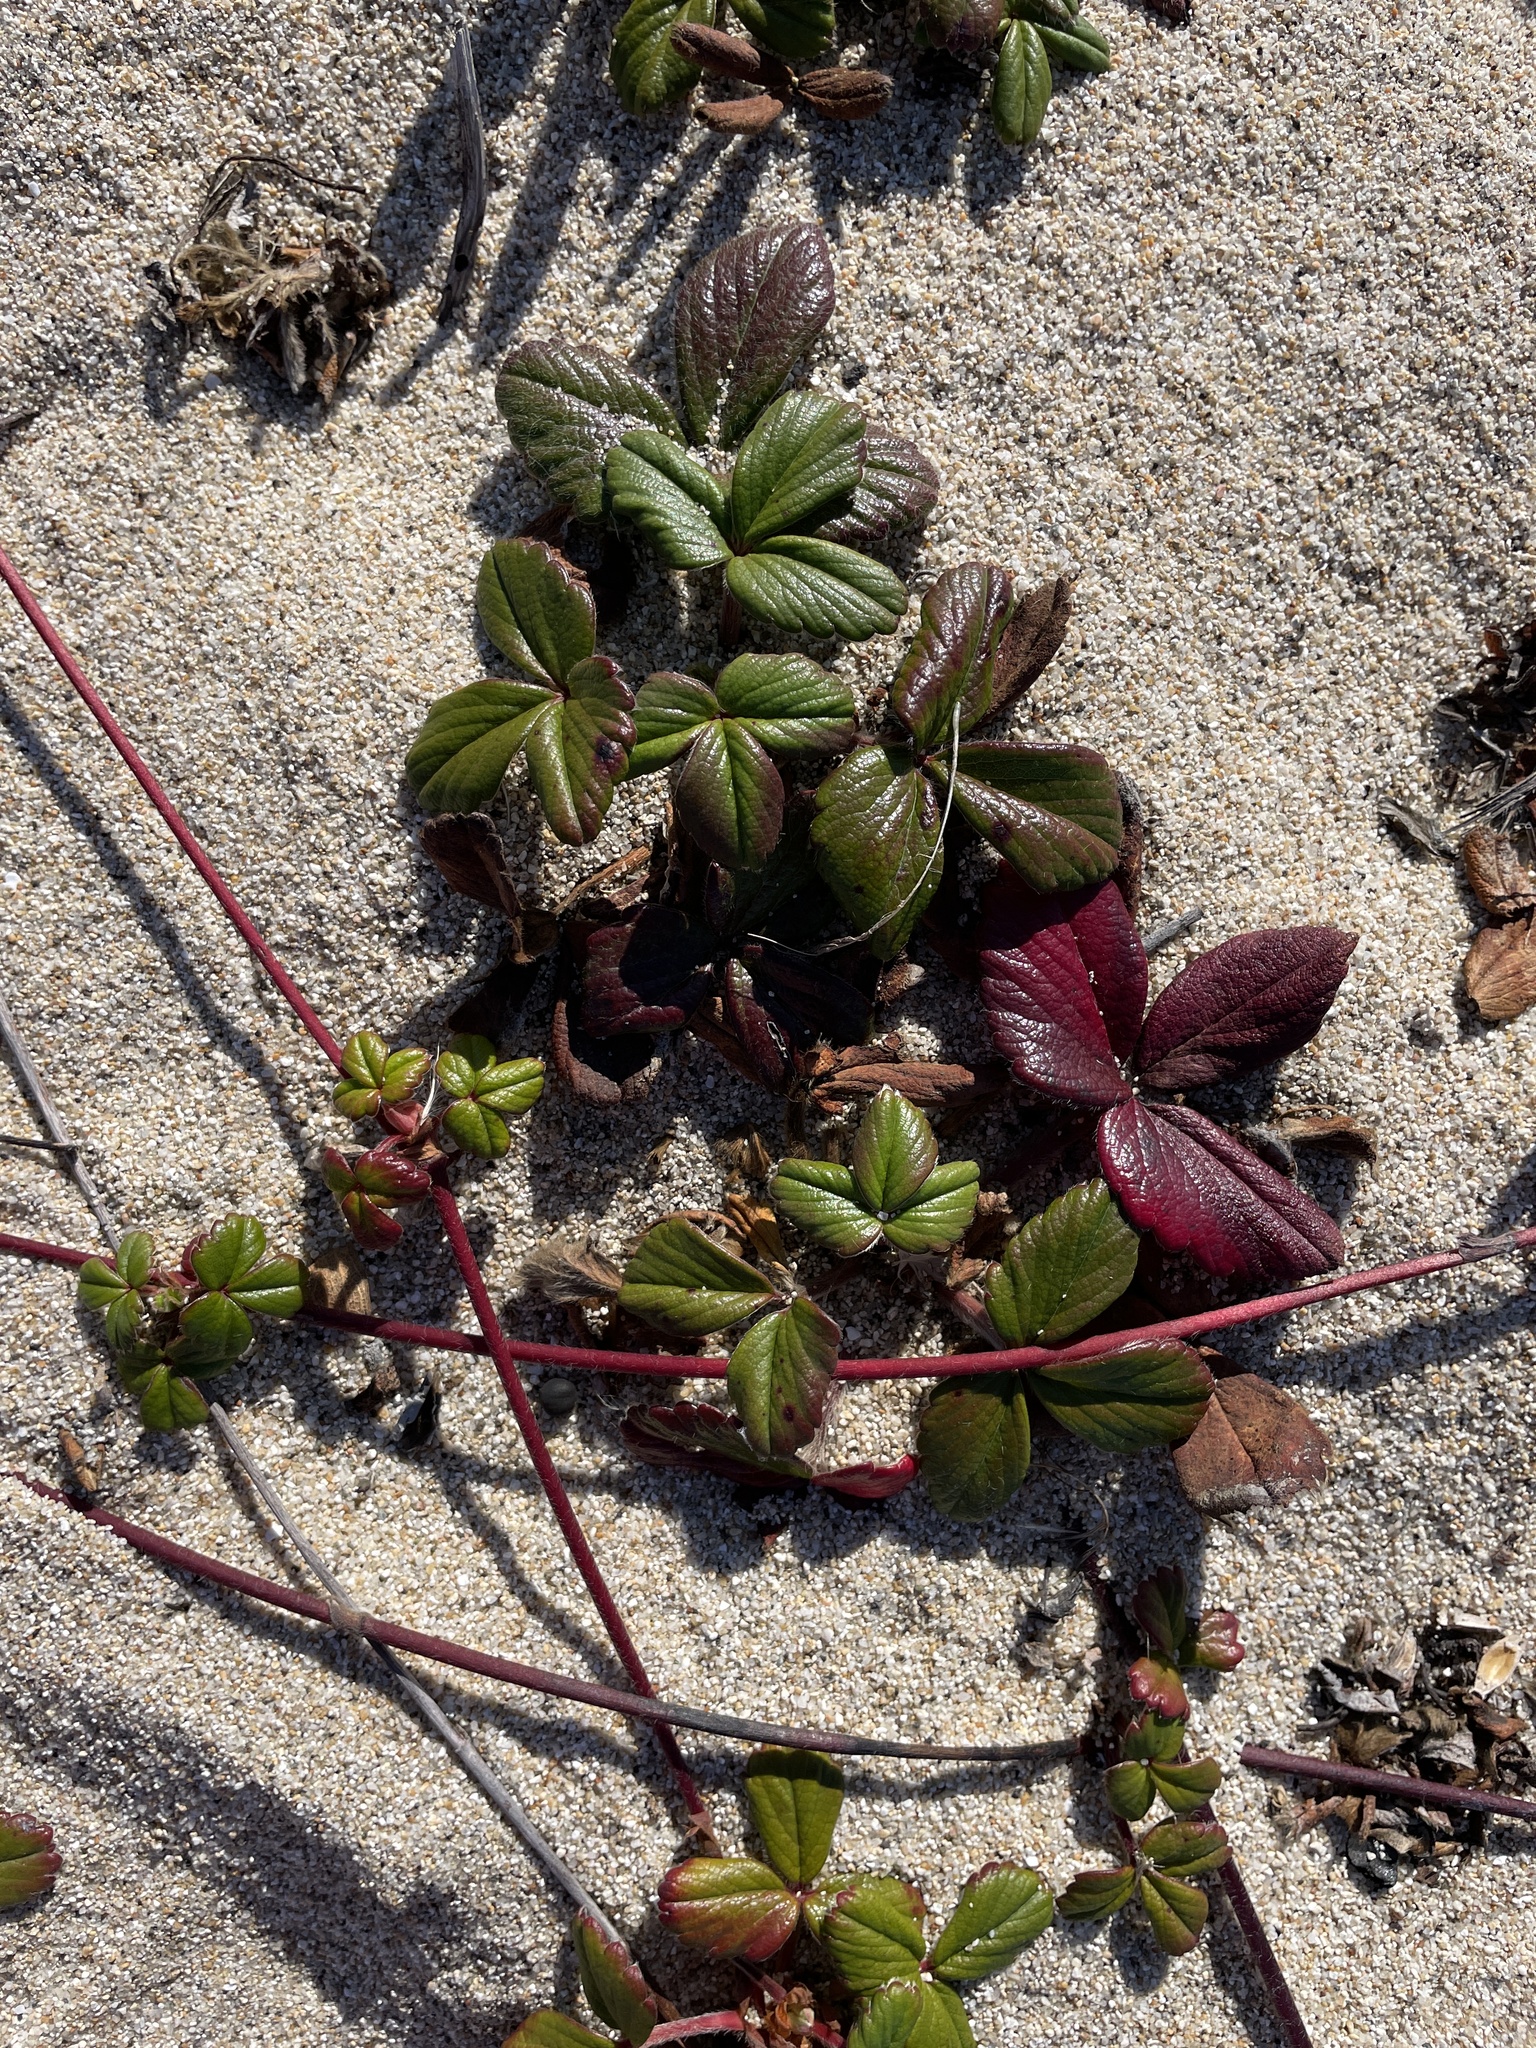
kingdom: Plantae
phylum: Tracheophyta
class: Magnoliopsida
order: Rosales
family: Rosaceae
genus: Fragaria
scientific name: Fragaria chiloensis
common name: Beach strawberry
